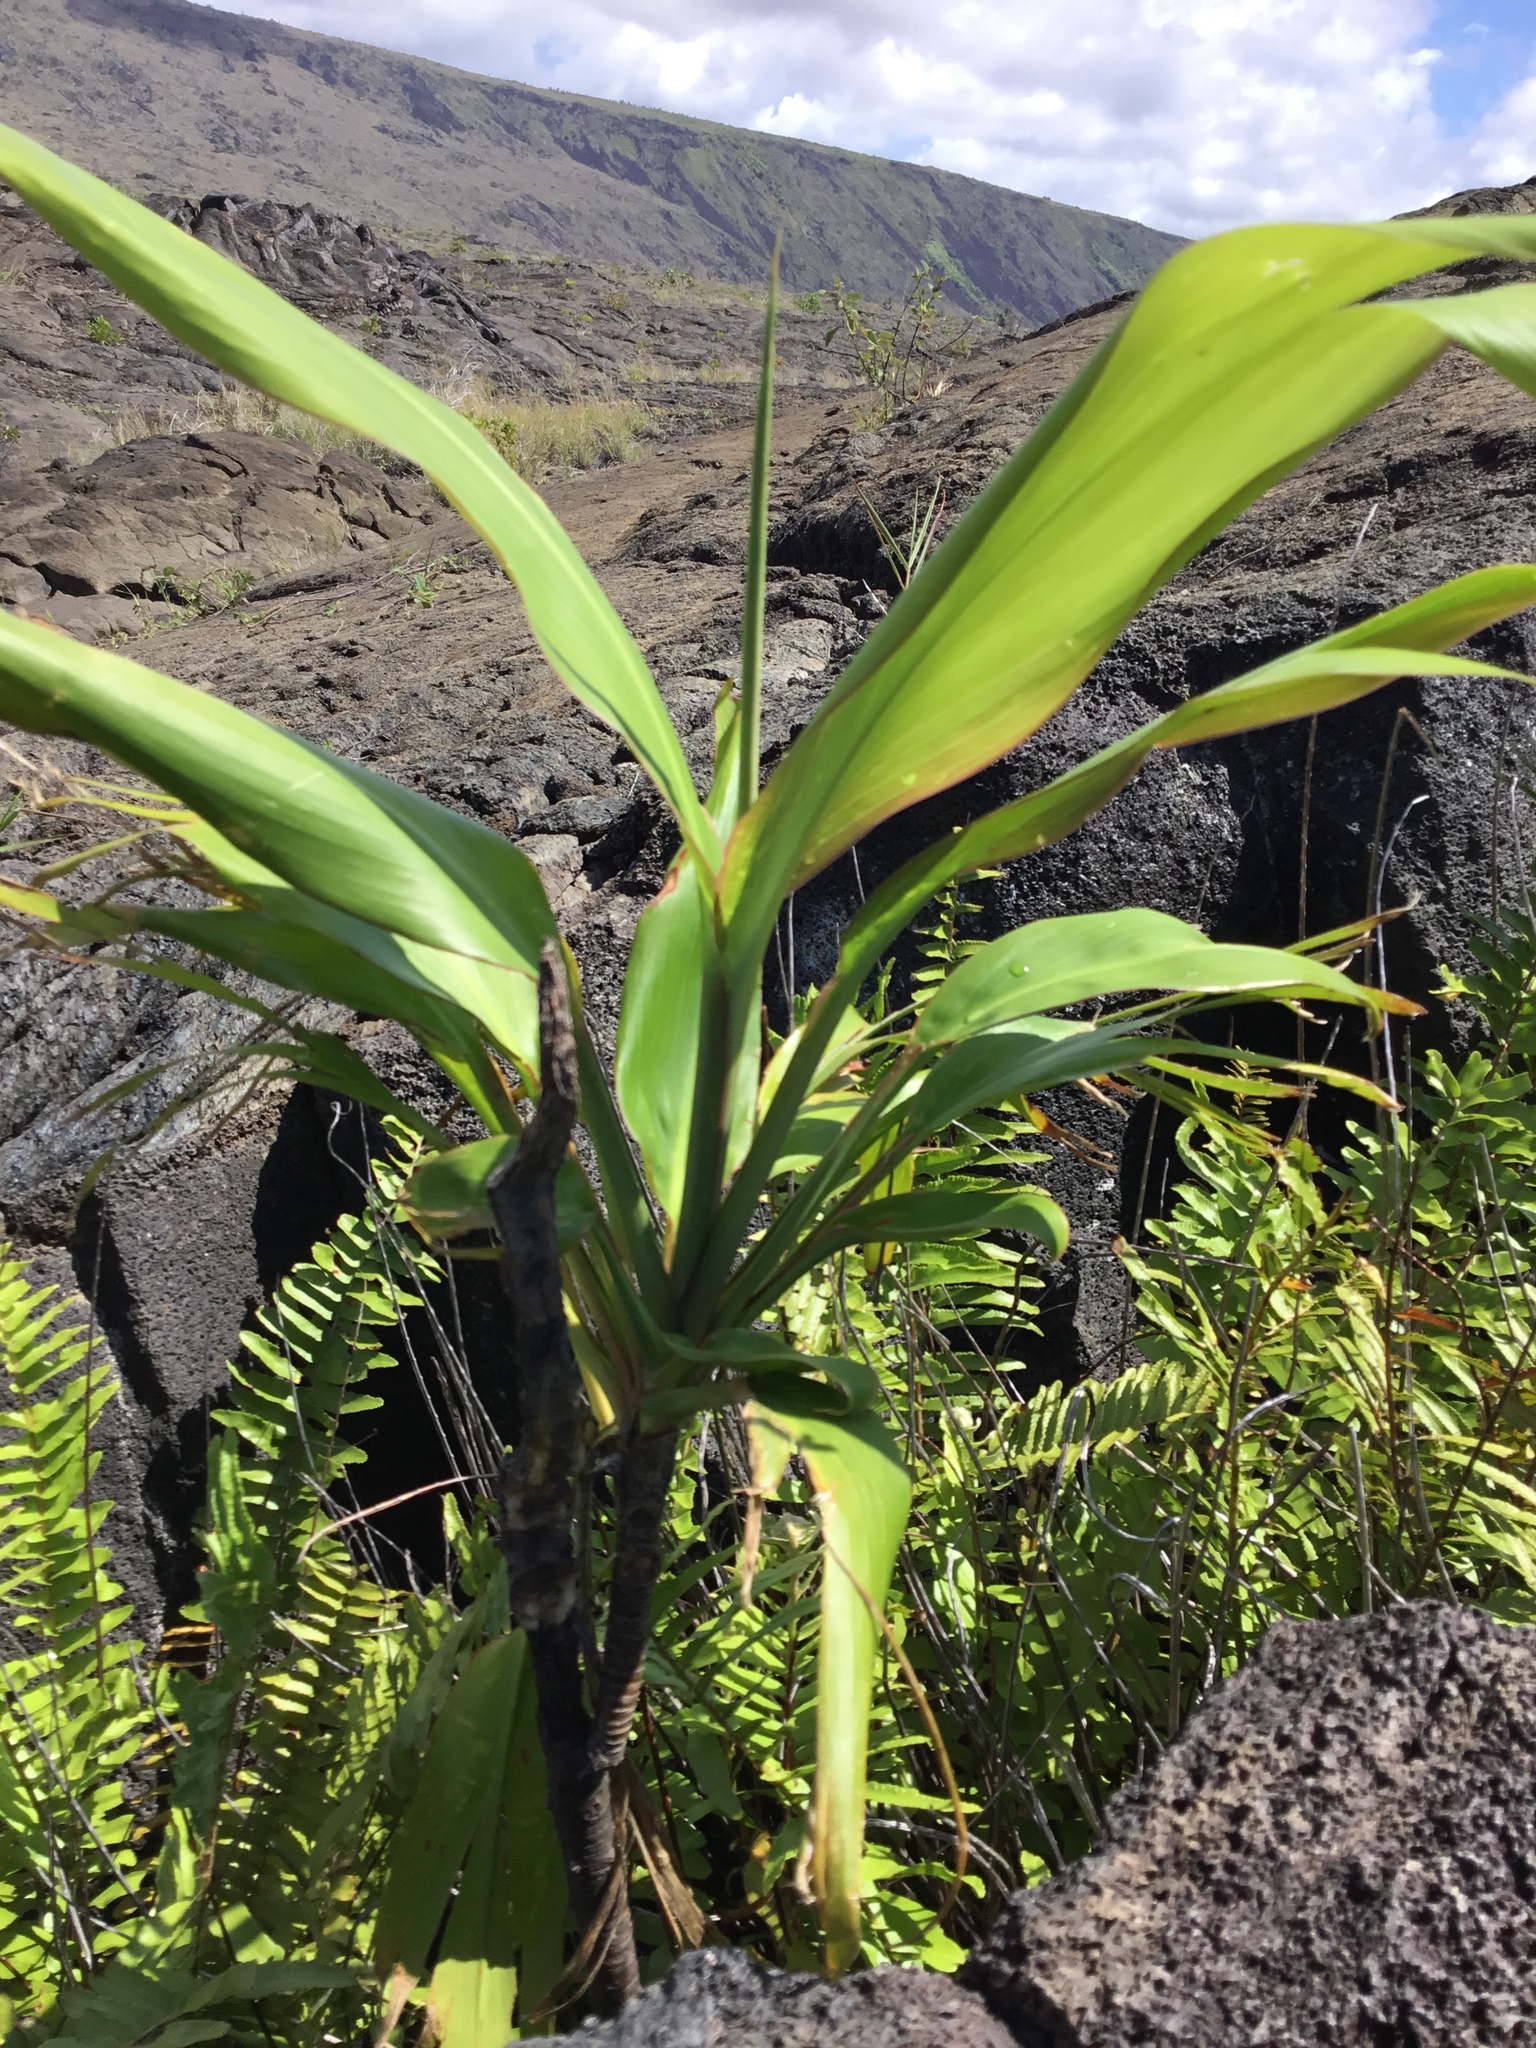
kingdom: Plantae
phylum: Tracheophyta
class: Liliopsida
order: Asparagales
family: Asparagaceae
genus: Cordyline
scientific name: Cordyline fruticosa
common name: Good-luck-plant
